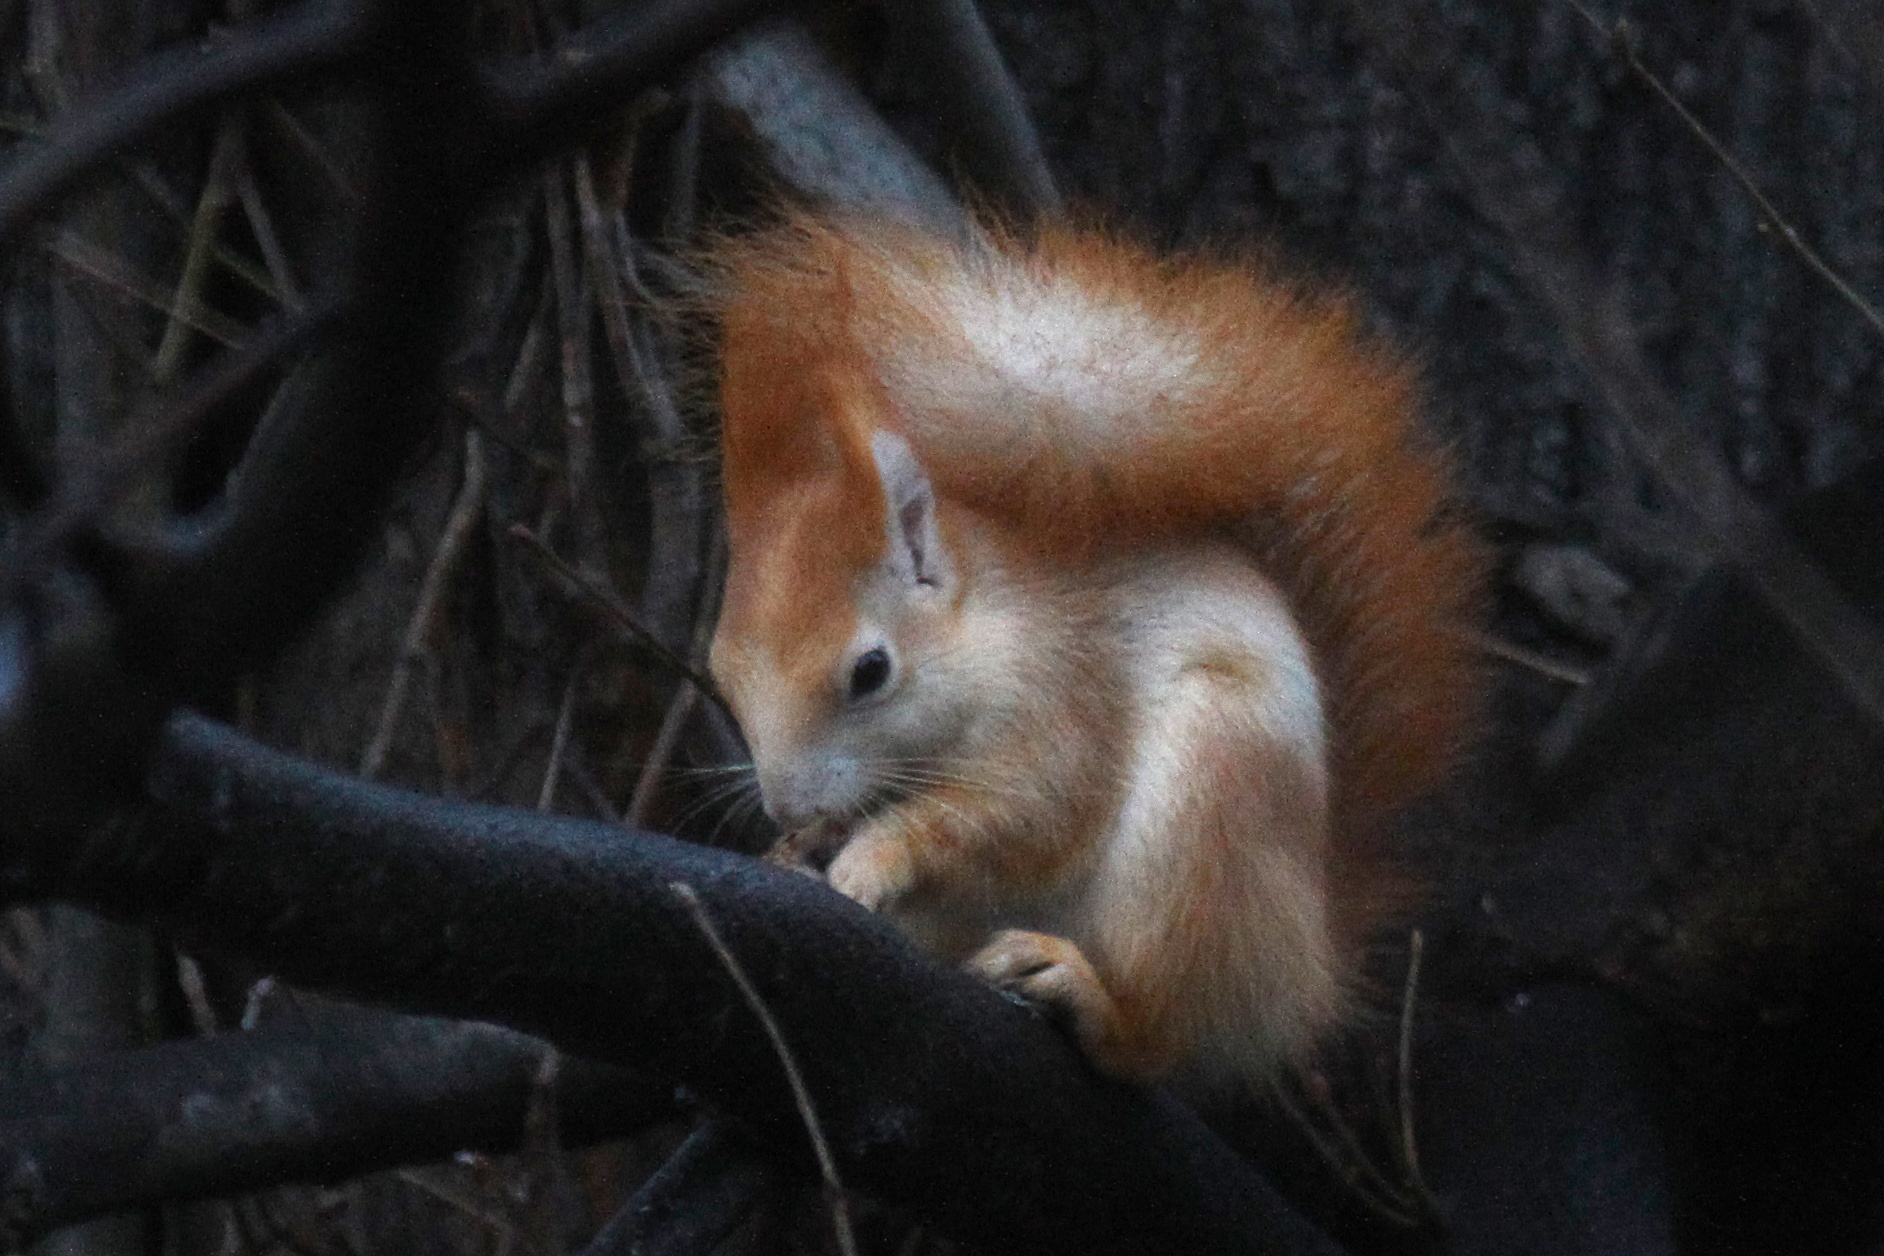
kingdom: Animalia
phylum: Chordata
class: Mammalia
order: Rodentia
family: Sciuridae
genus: Sciurus
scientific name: Sciurus vulgaris
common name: Eurasian red squirrel
